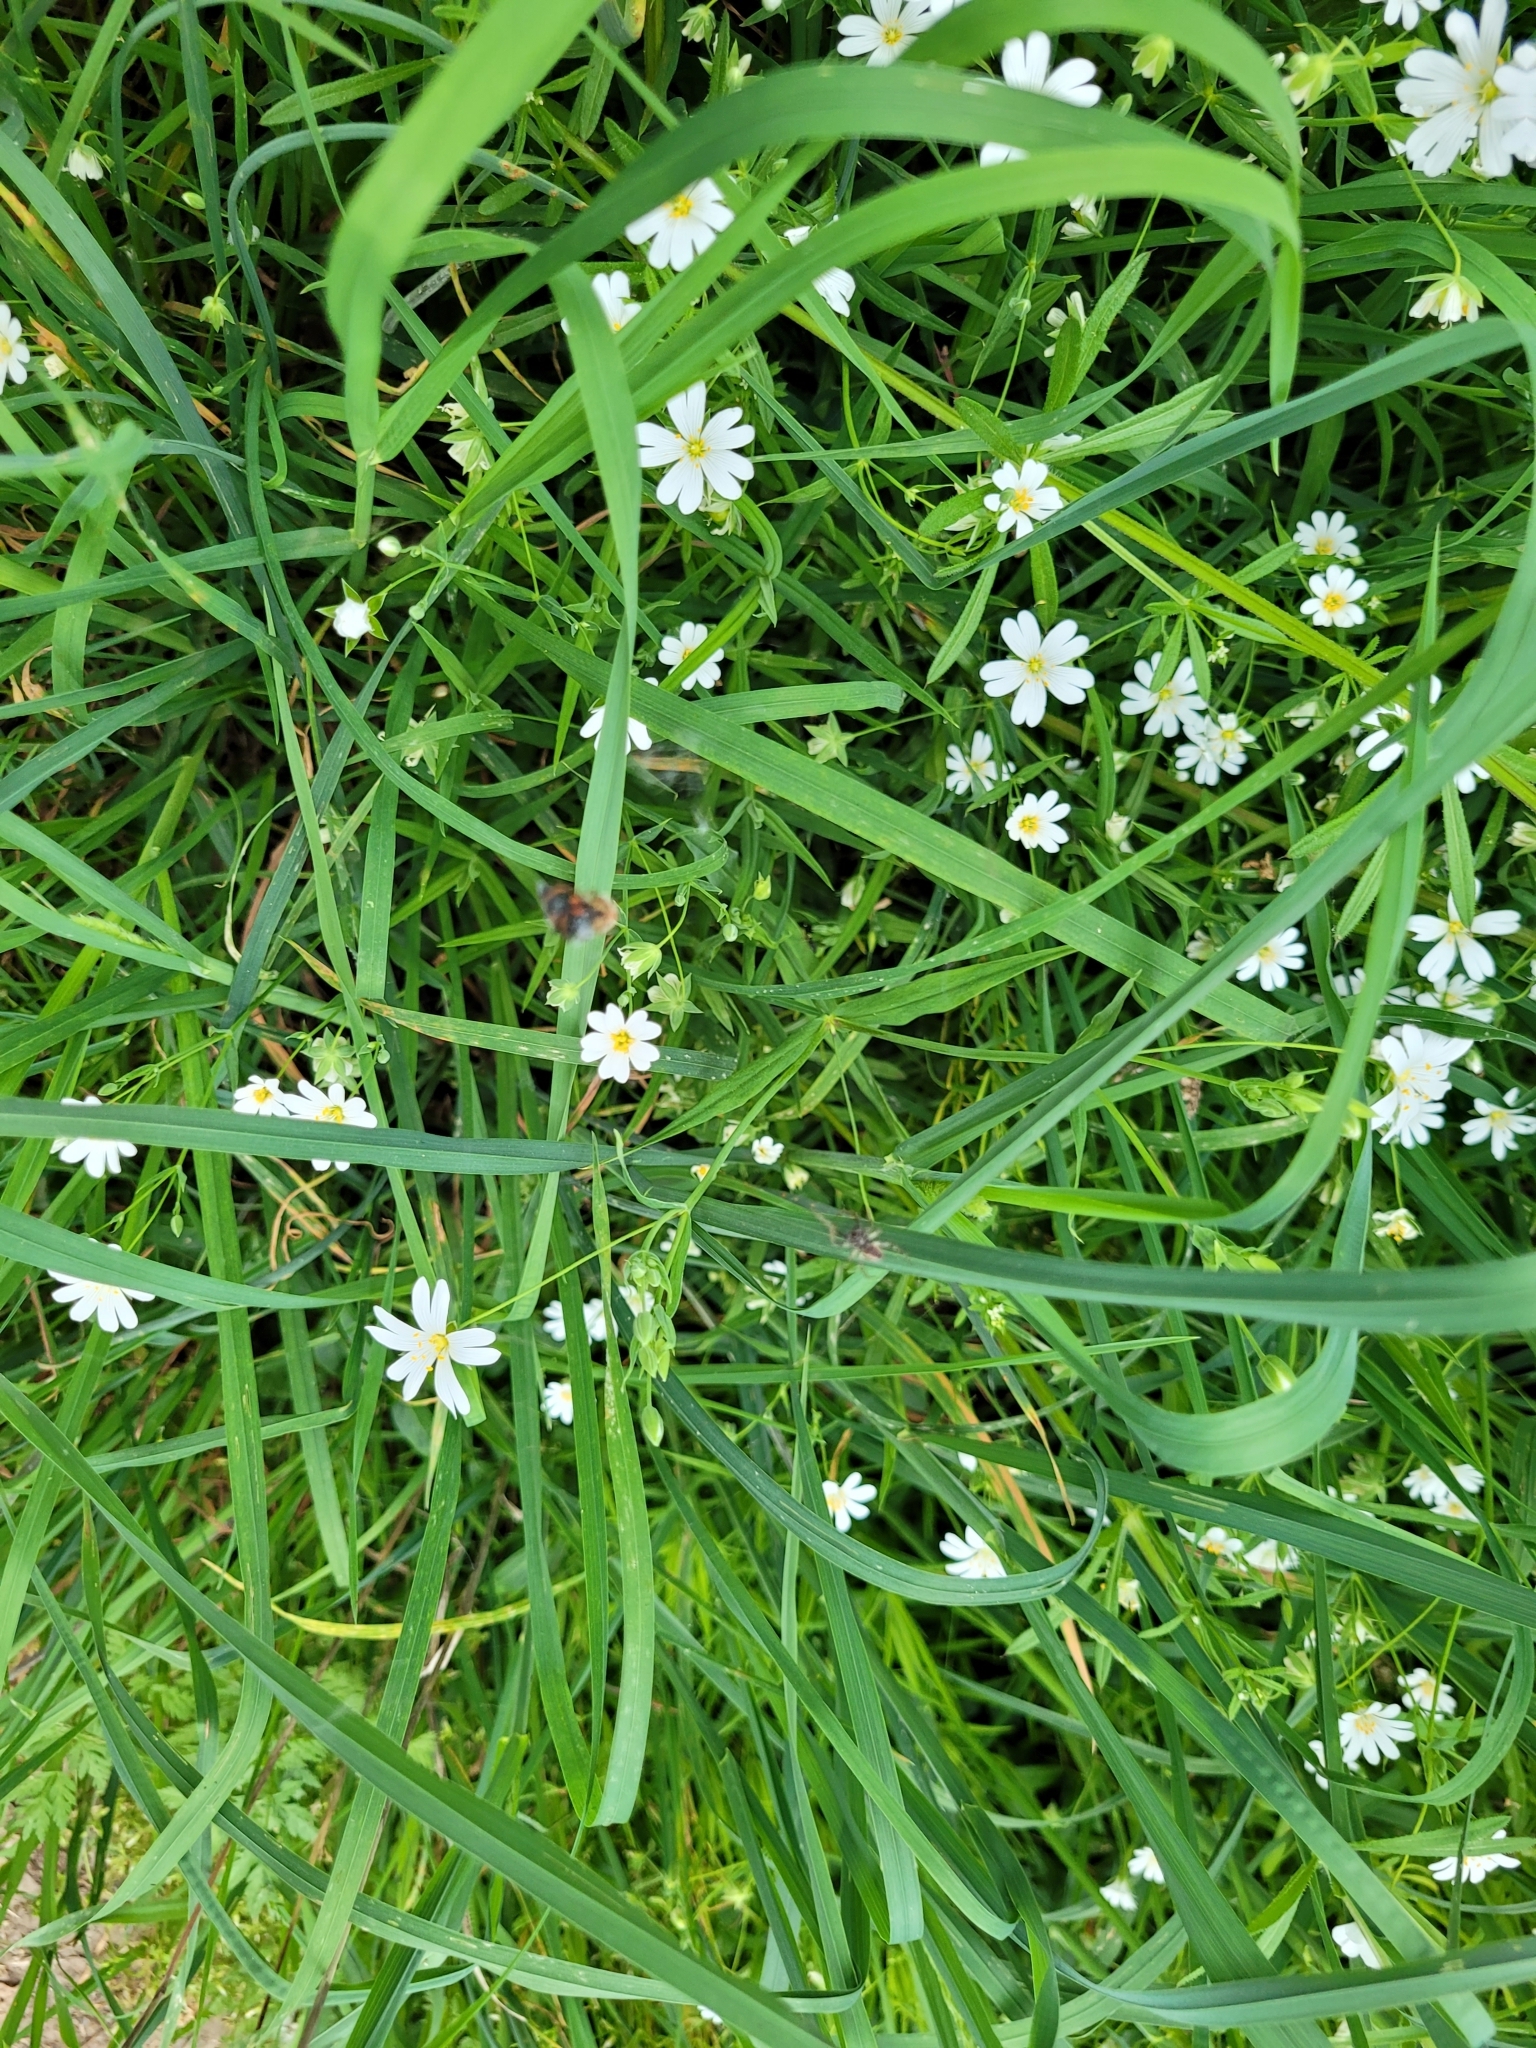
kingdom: Plantae
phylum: Tracheophyta
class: Magnoliopsida
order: Caryophyllales
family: Caryophyllaceae
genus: Rabelera
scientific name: Rabelera holostea
